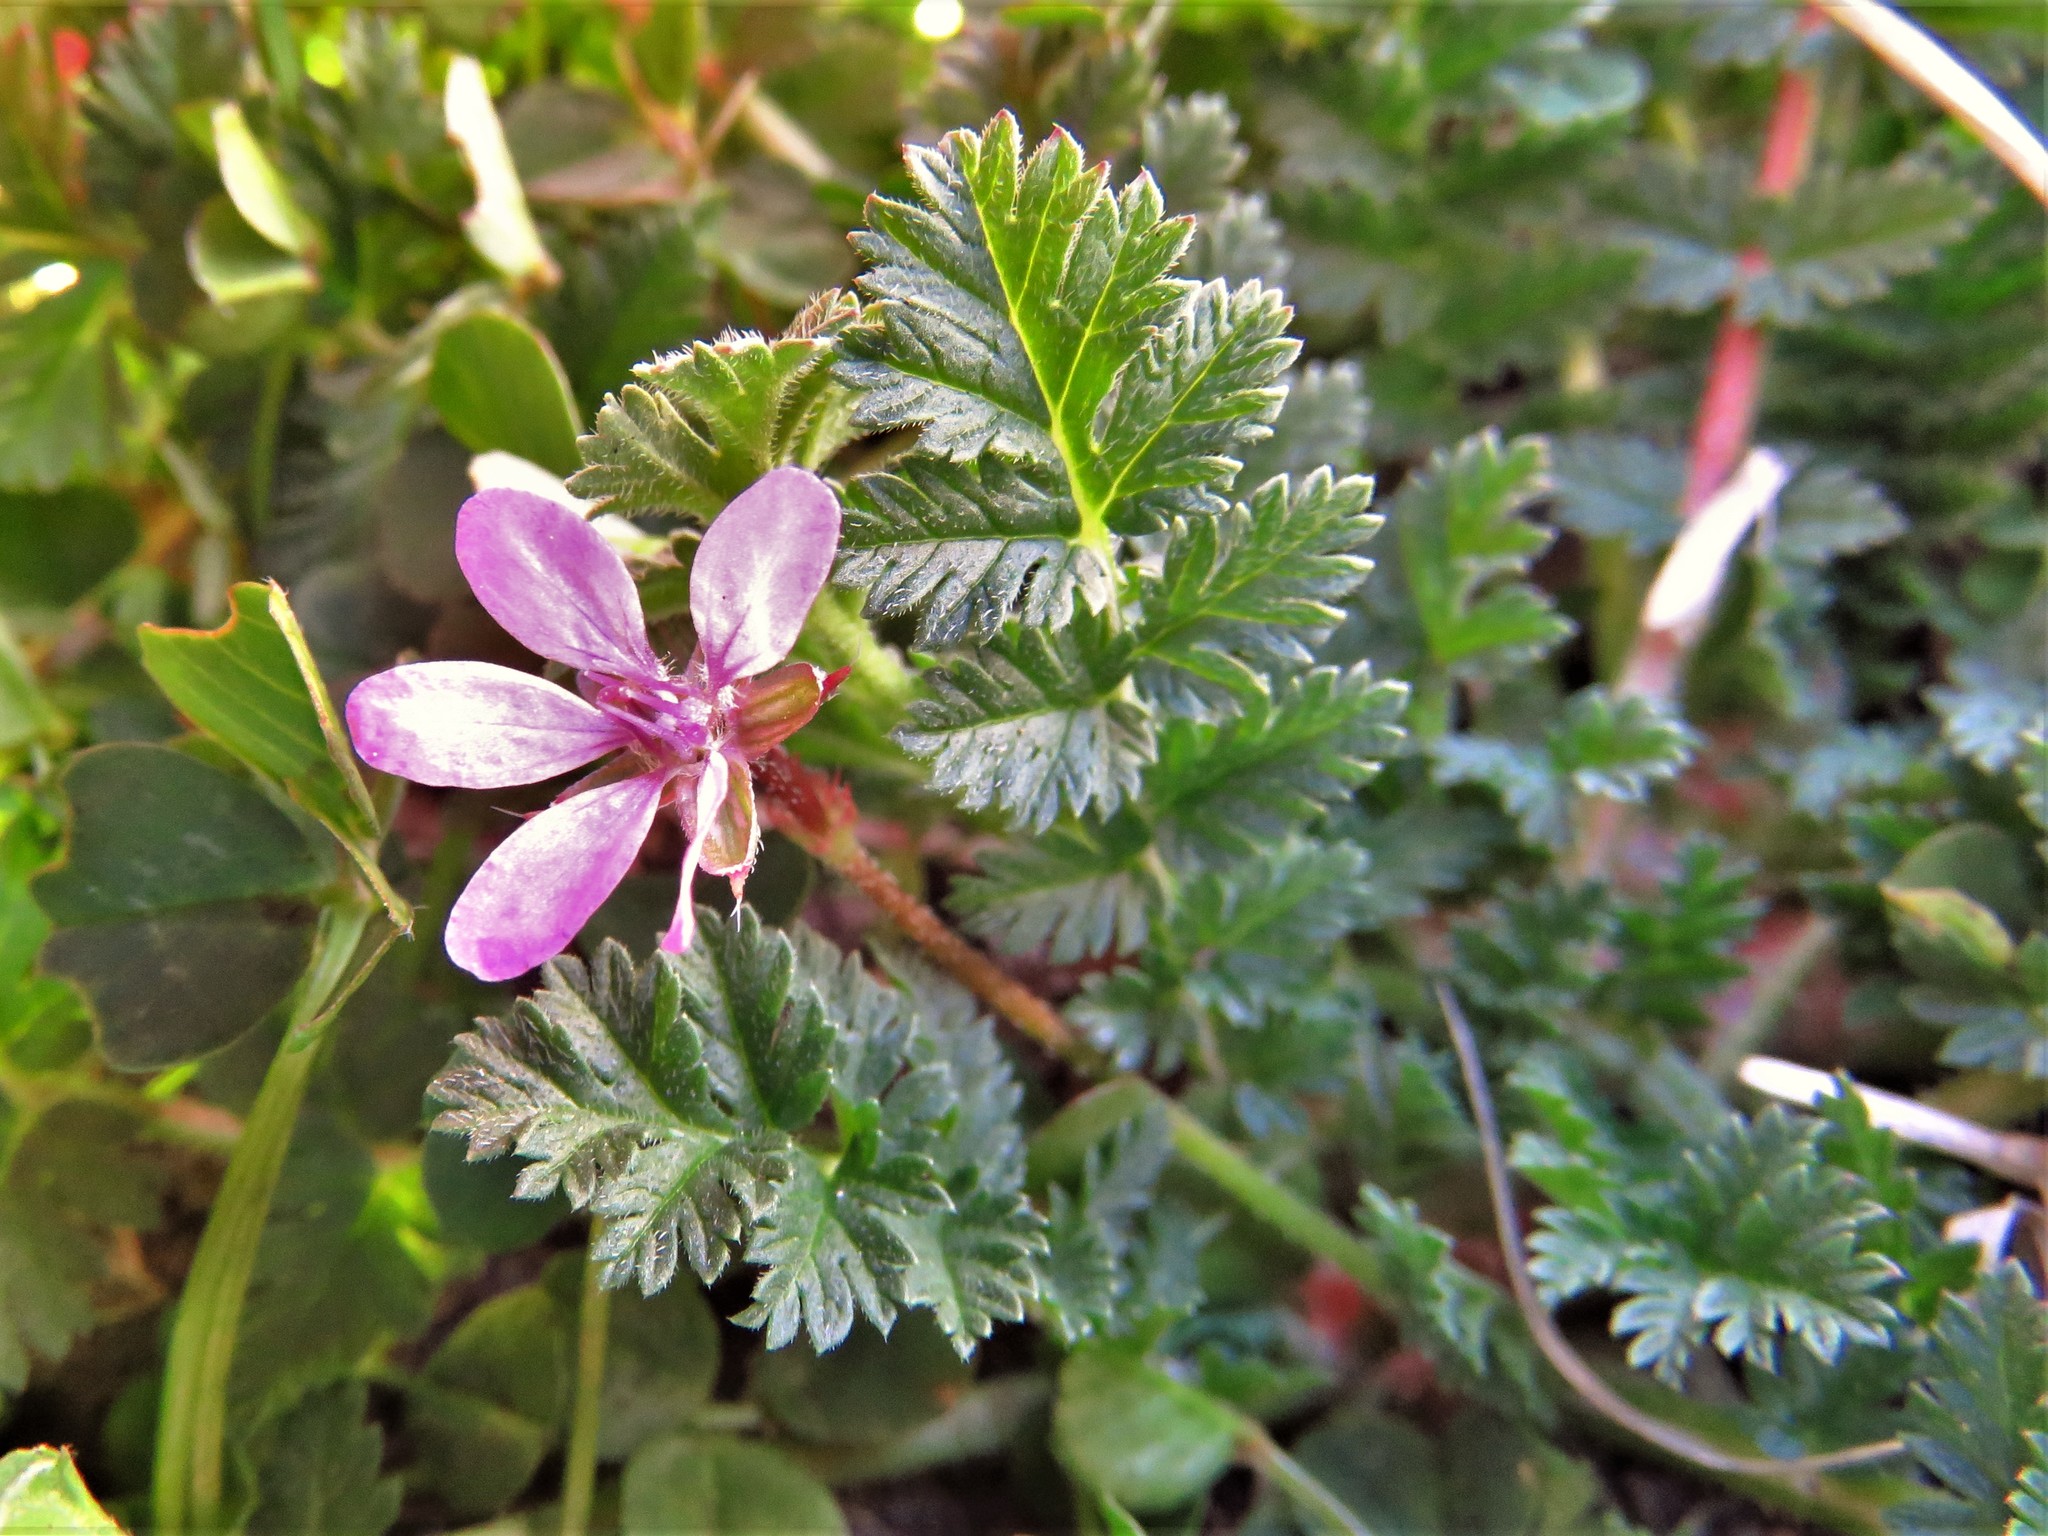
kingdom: Plantae
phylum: Tracheophyta
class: Magnoliopsida
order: Geraniales
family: Geraniaceae
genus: Erodium
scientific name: Erodium cicutarium
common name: Common stork's-bill
